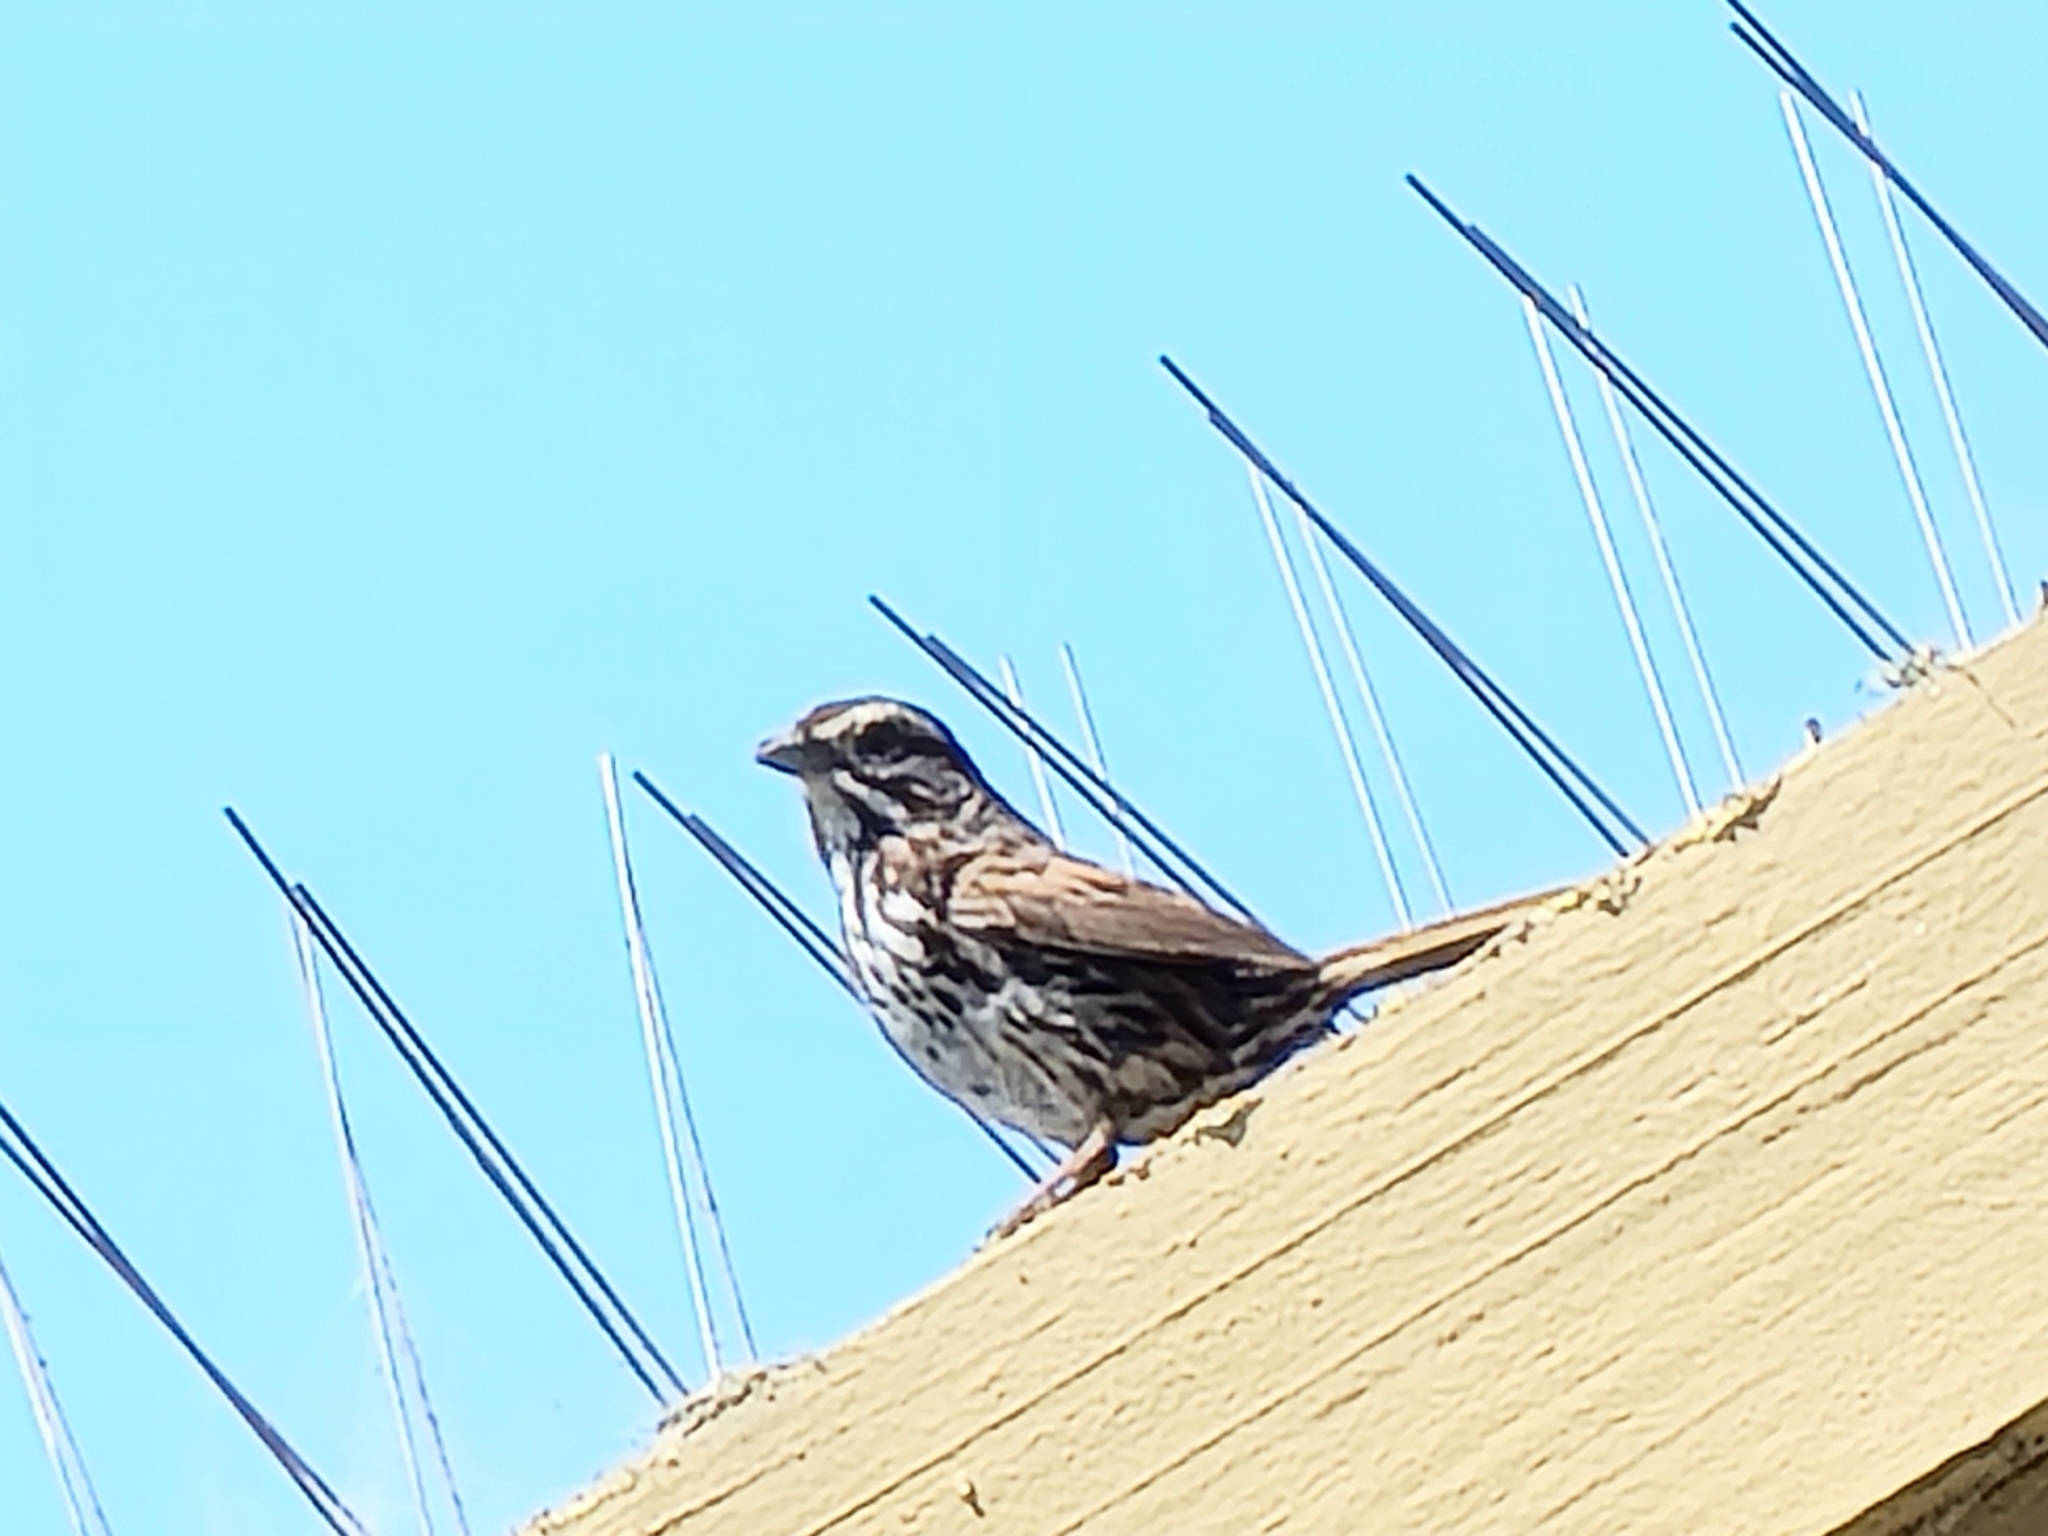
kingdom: Animalia
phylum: Chordata
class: Aves
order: Passeriformes
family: Passerellidae
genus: Melospiza
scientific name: Melospiza melodia
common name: Song sparrow
